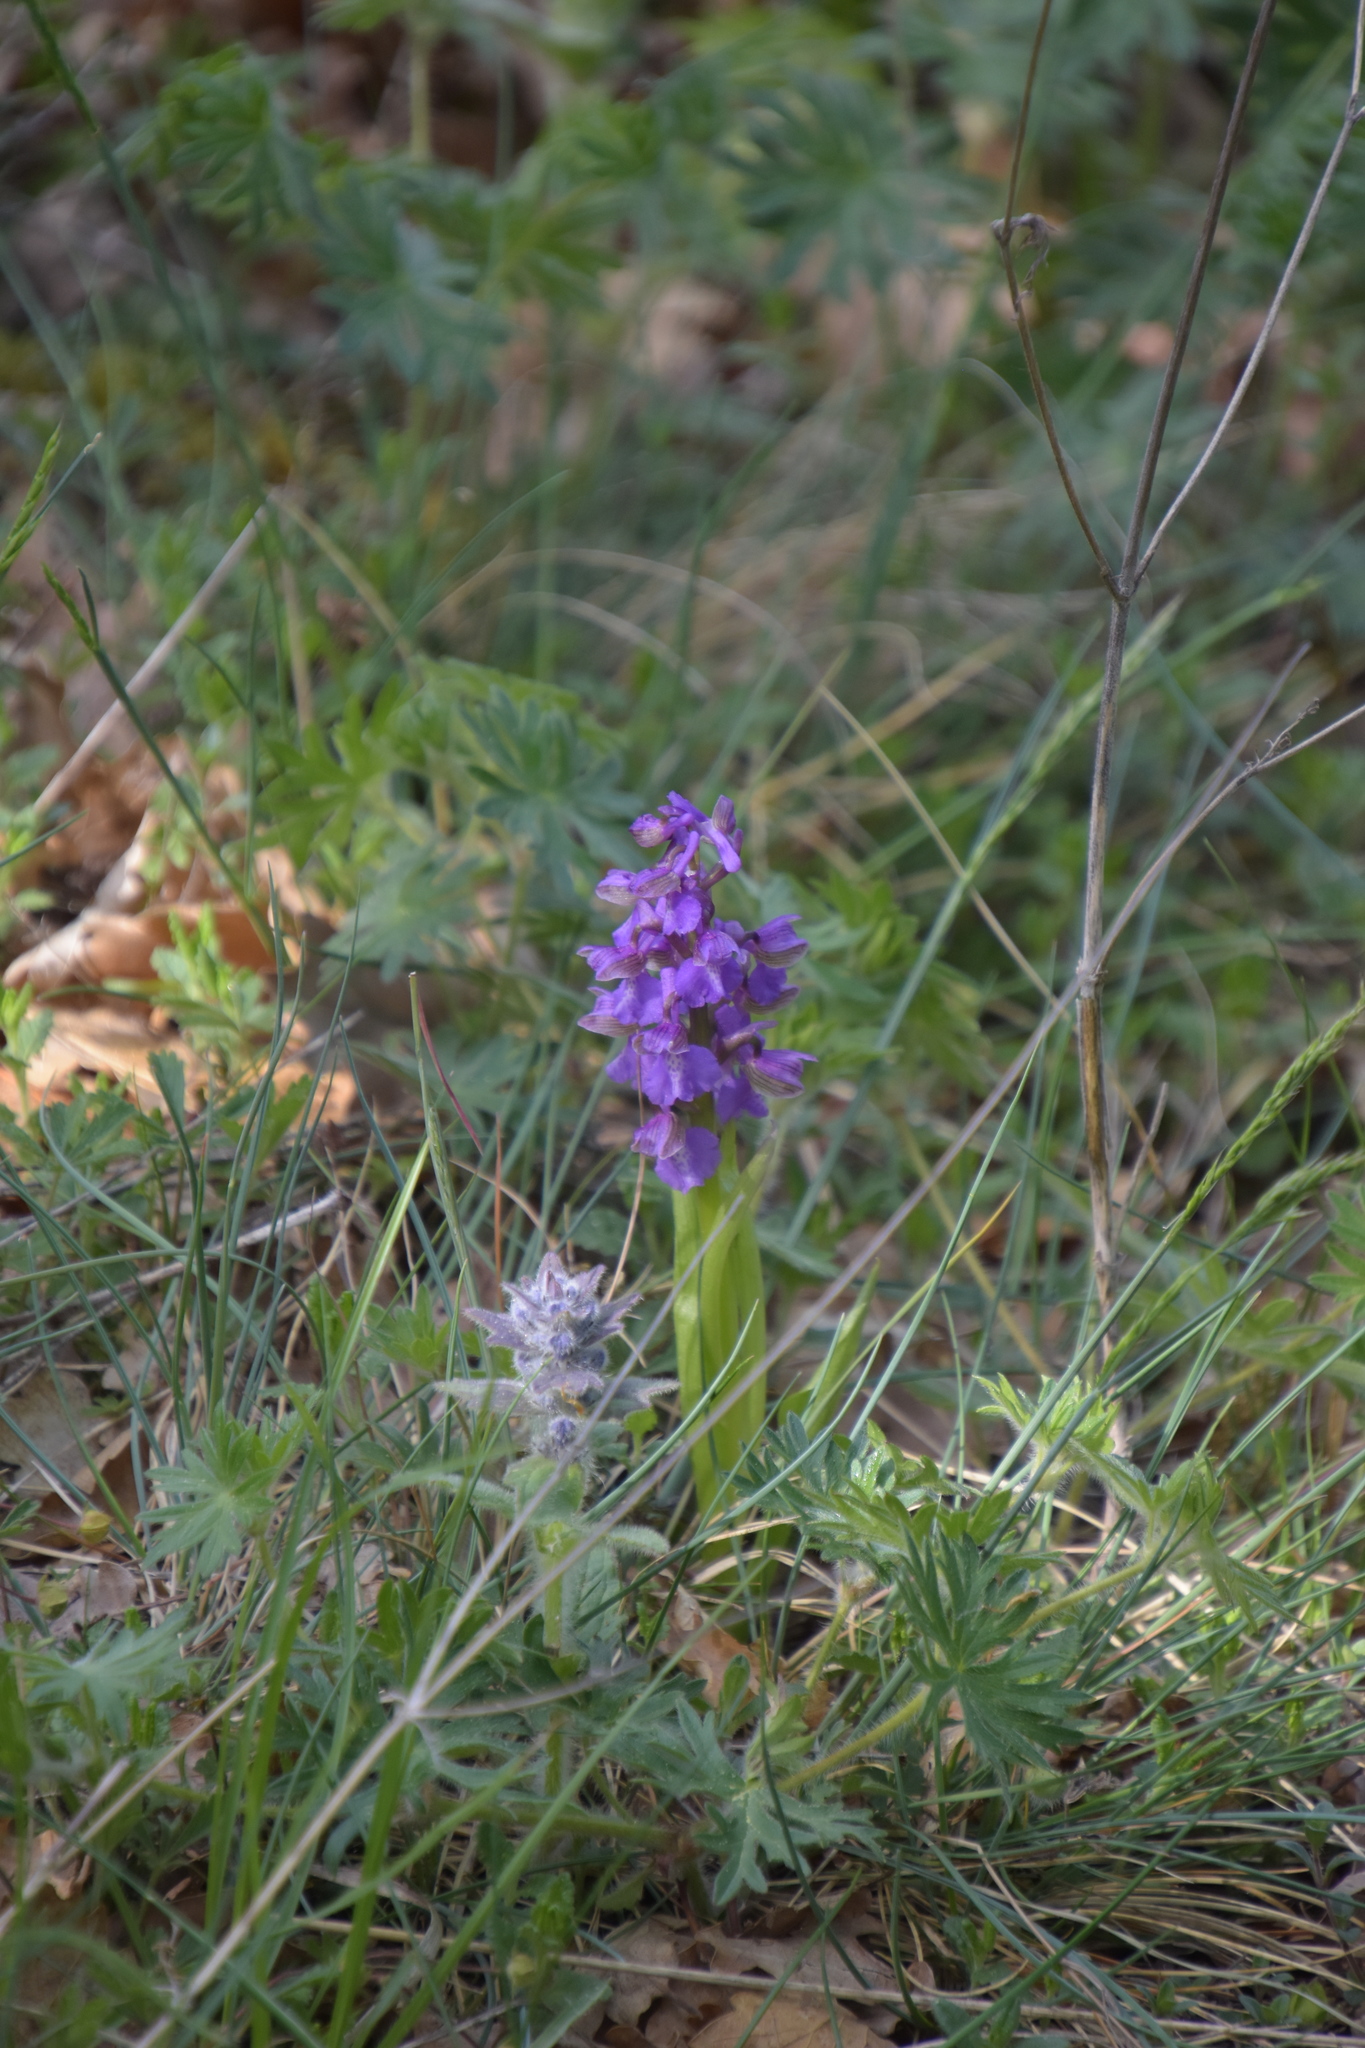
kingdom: Plantae
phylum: Tracheophyta
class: Liliopsida
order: Asparagales
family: Orchidaceae
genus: Anacamptis
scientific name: Anacamptis morio
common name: Green-winged orchid
